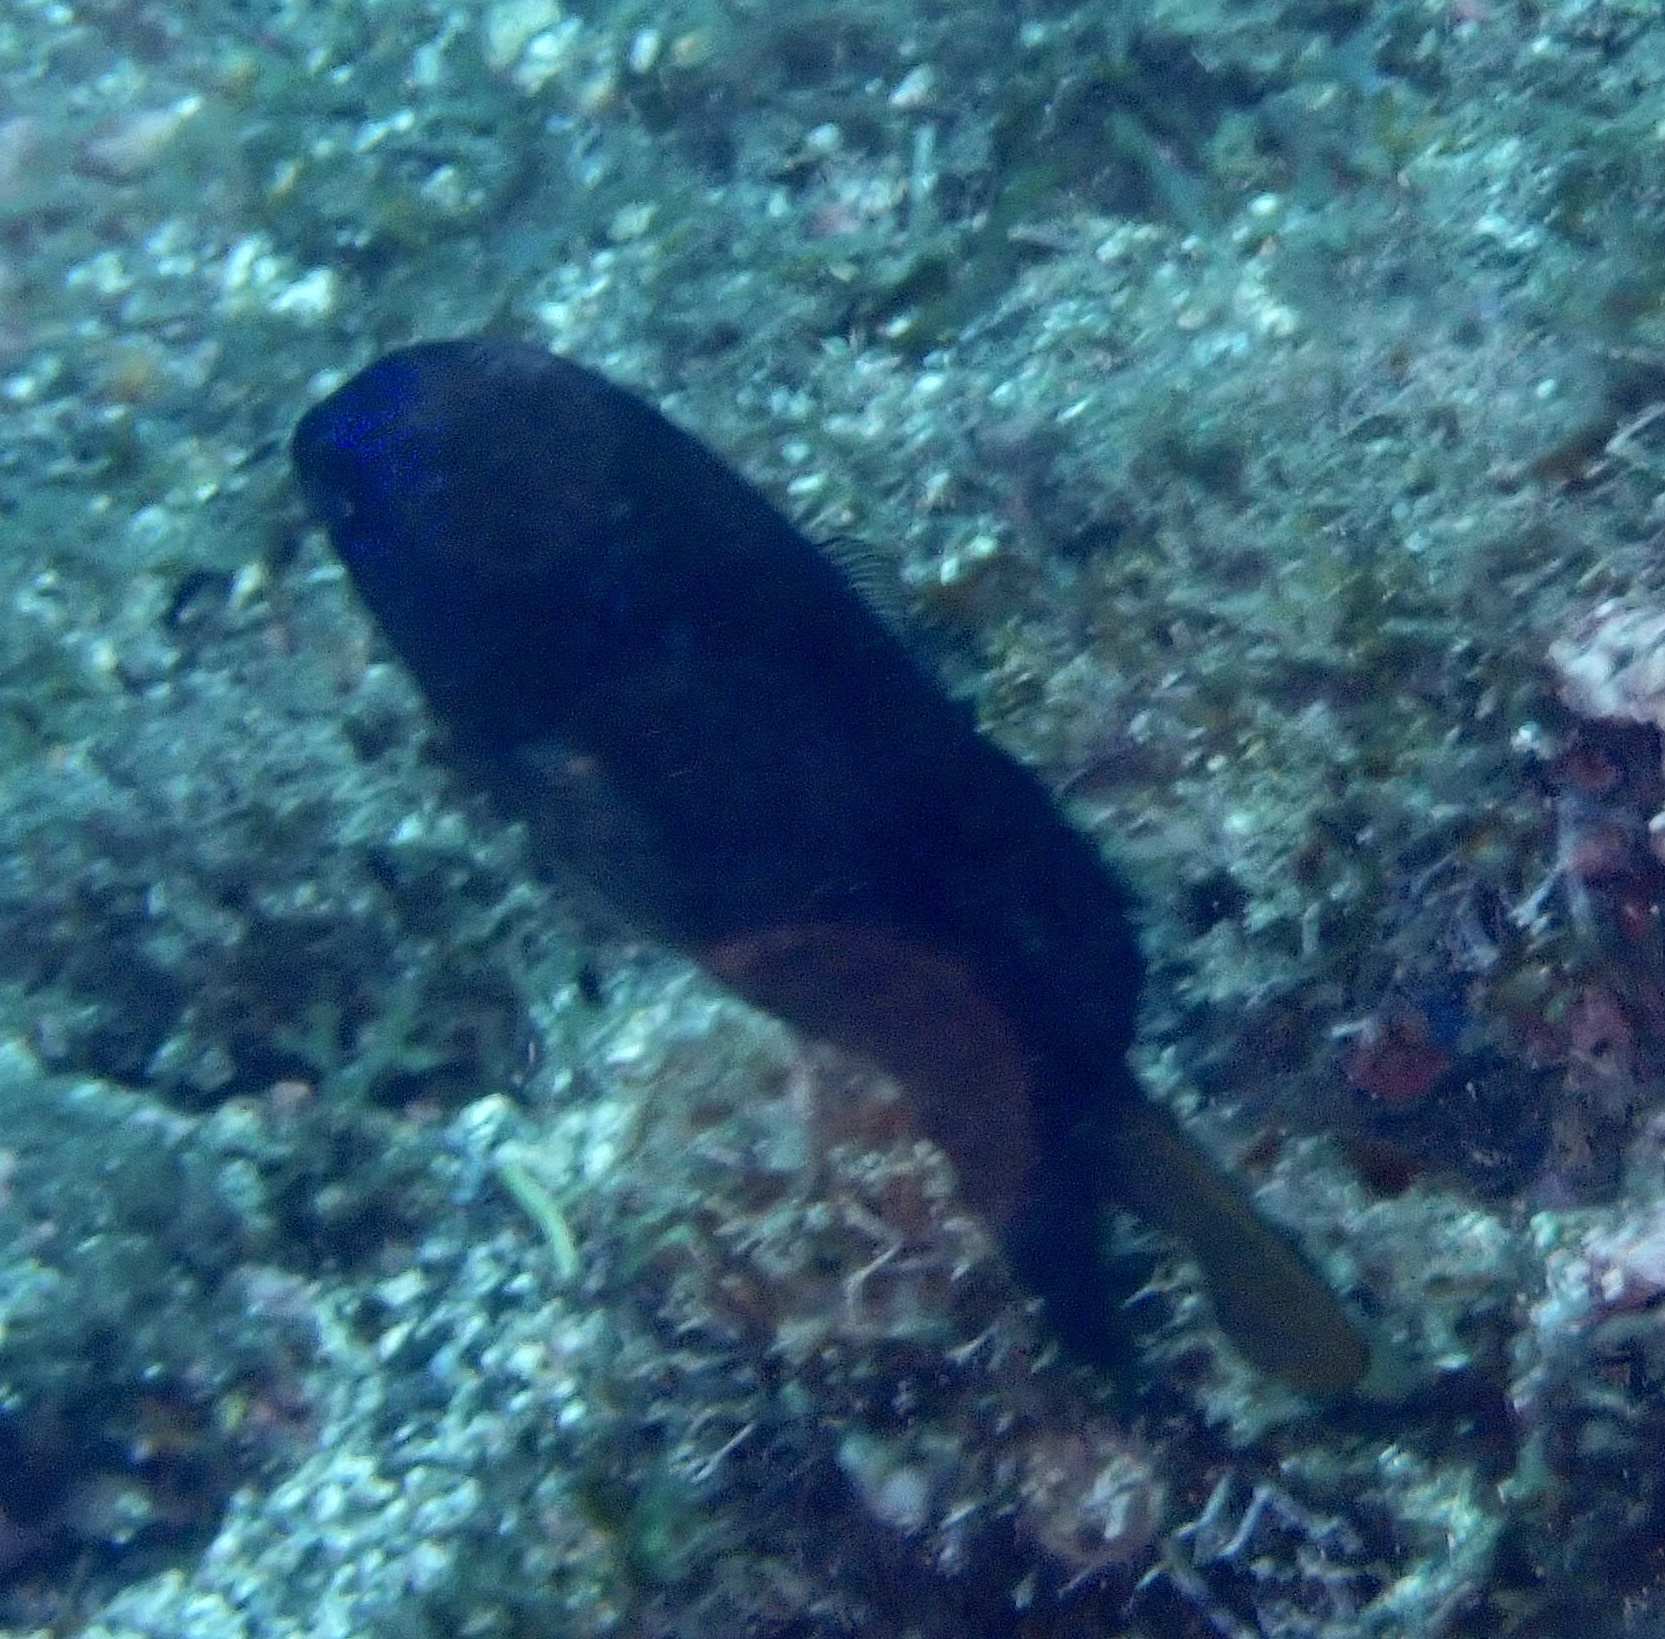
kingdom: Animalia
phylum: Chordata
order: Perciformes
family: Pomacentridae
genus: Stegastes
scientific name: Stegastes imbricatus
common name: Cape verde gregory
